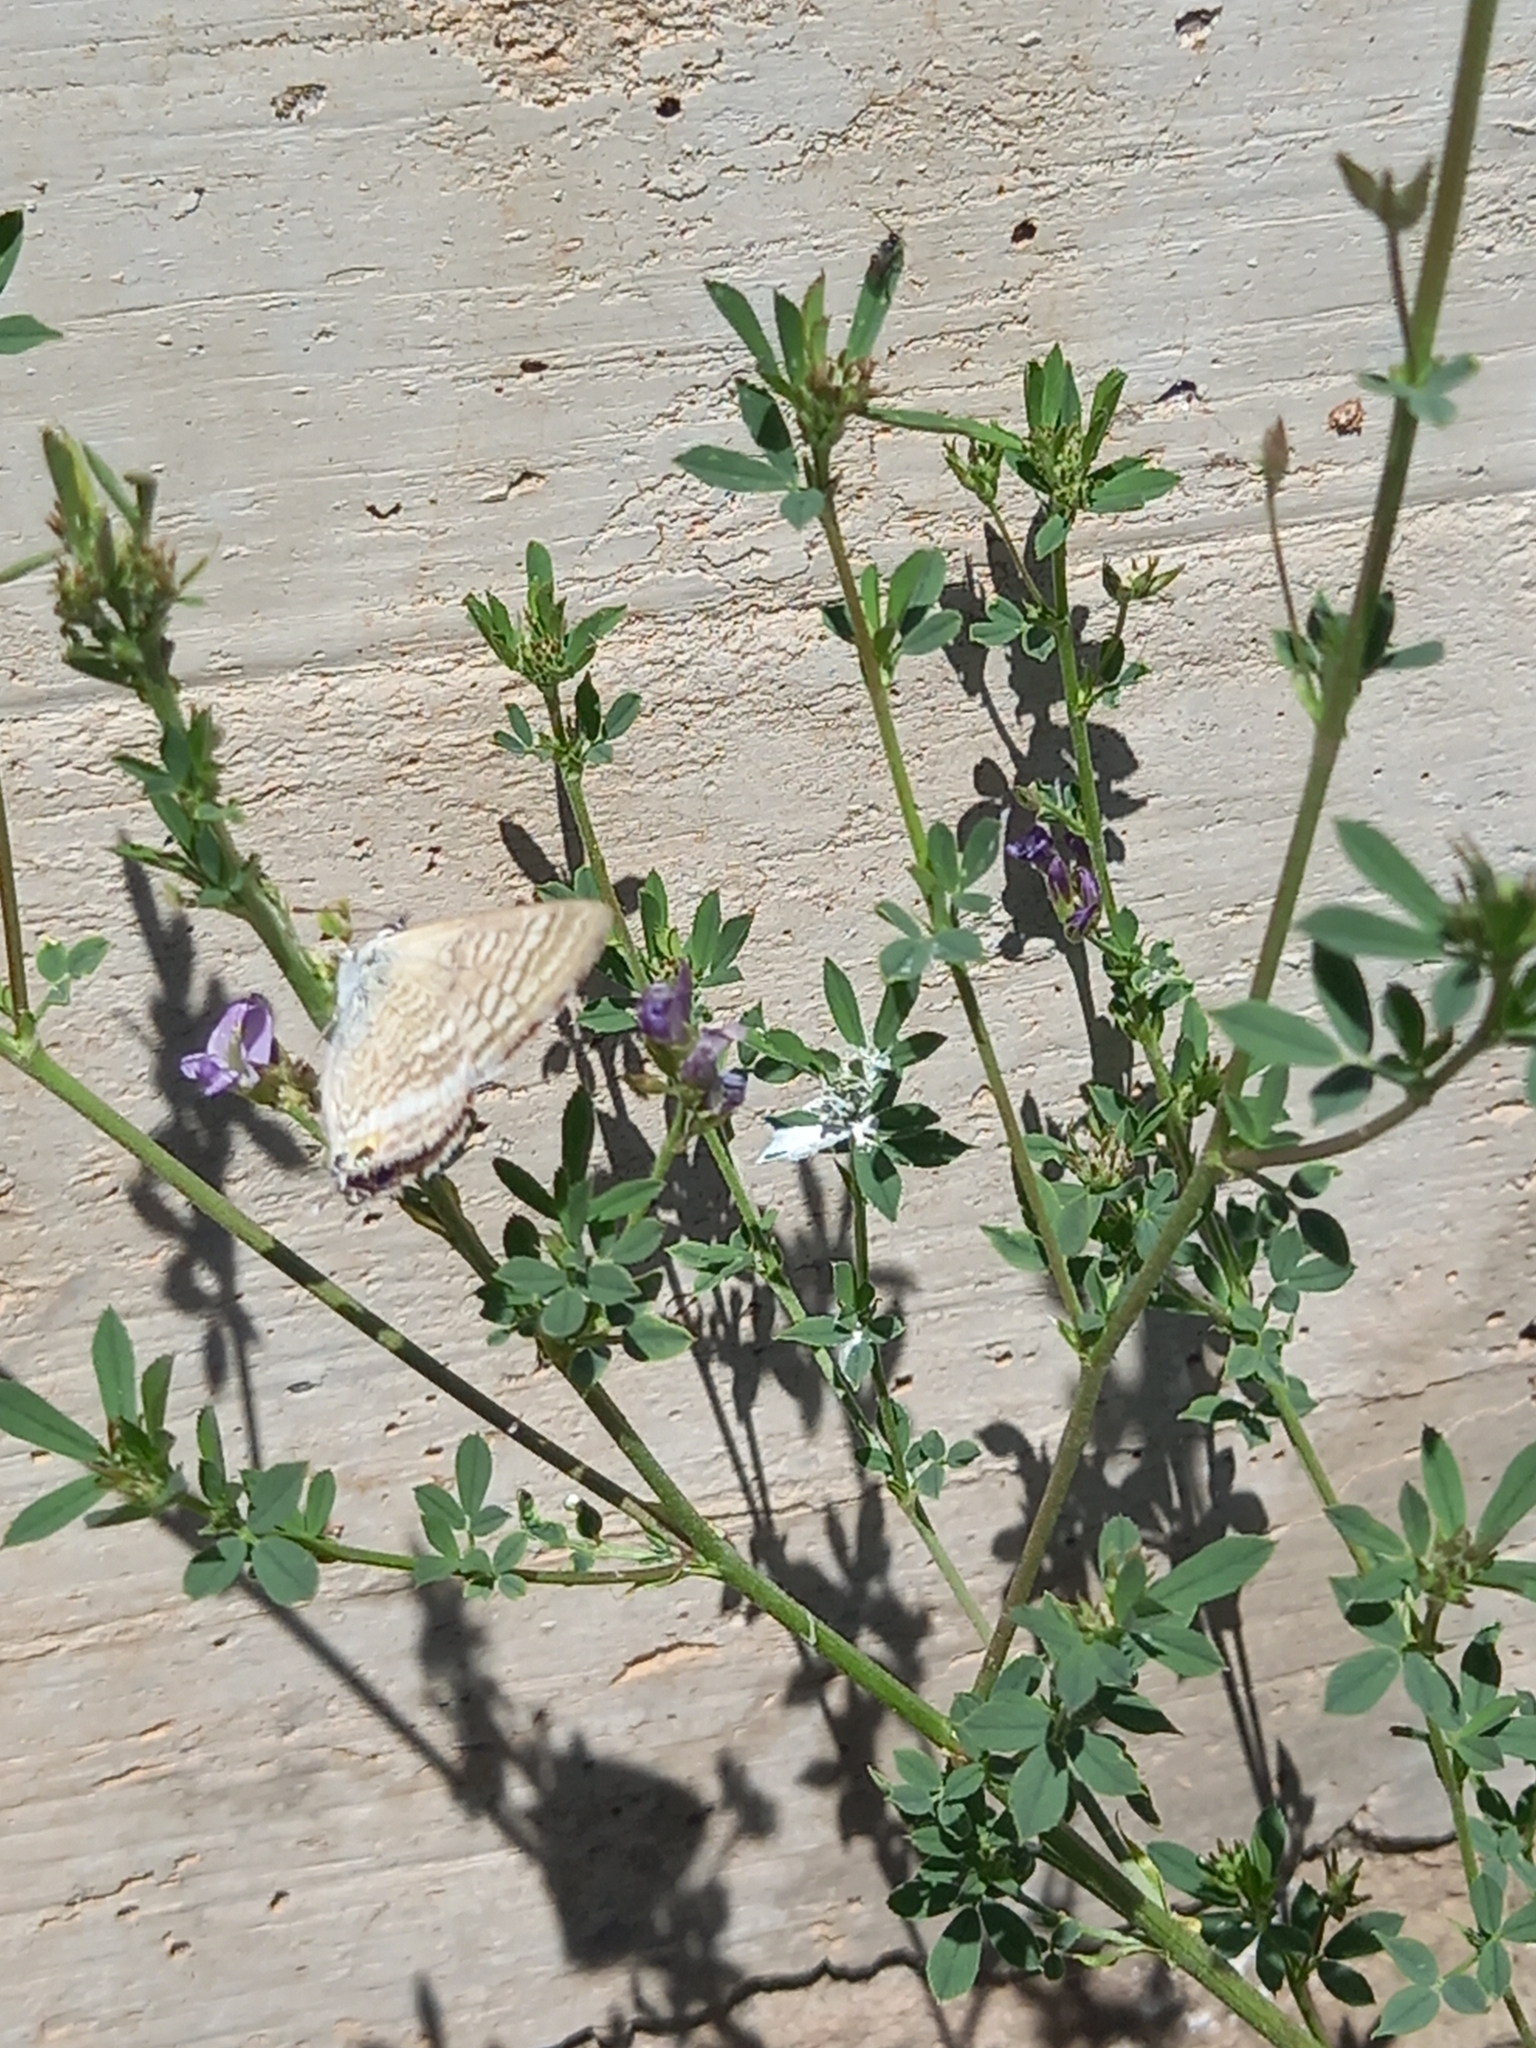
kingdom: Animalia
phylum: Arthropoda
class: Insecta
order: Lepidoptera
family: Lycaenidae
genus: Lampides
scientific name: Lampides boeticus
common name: Long-tailed blue
